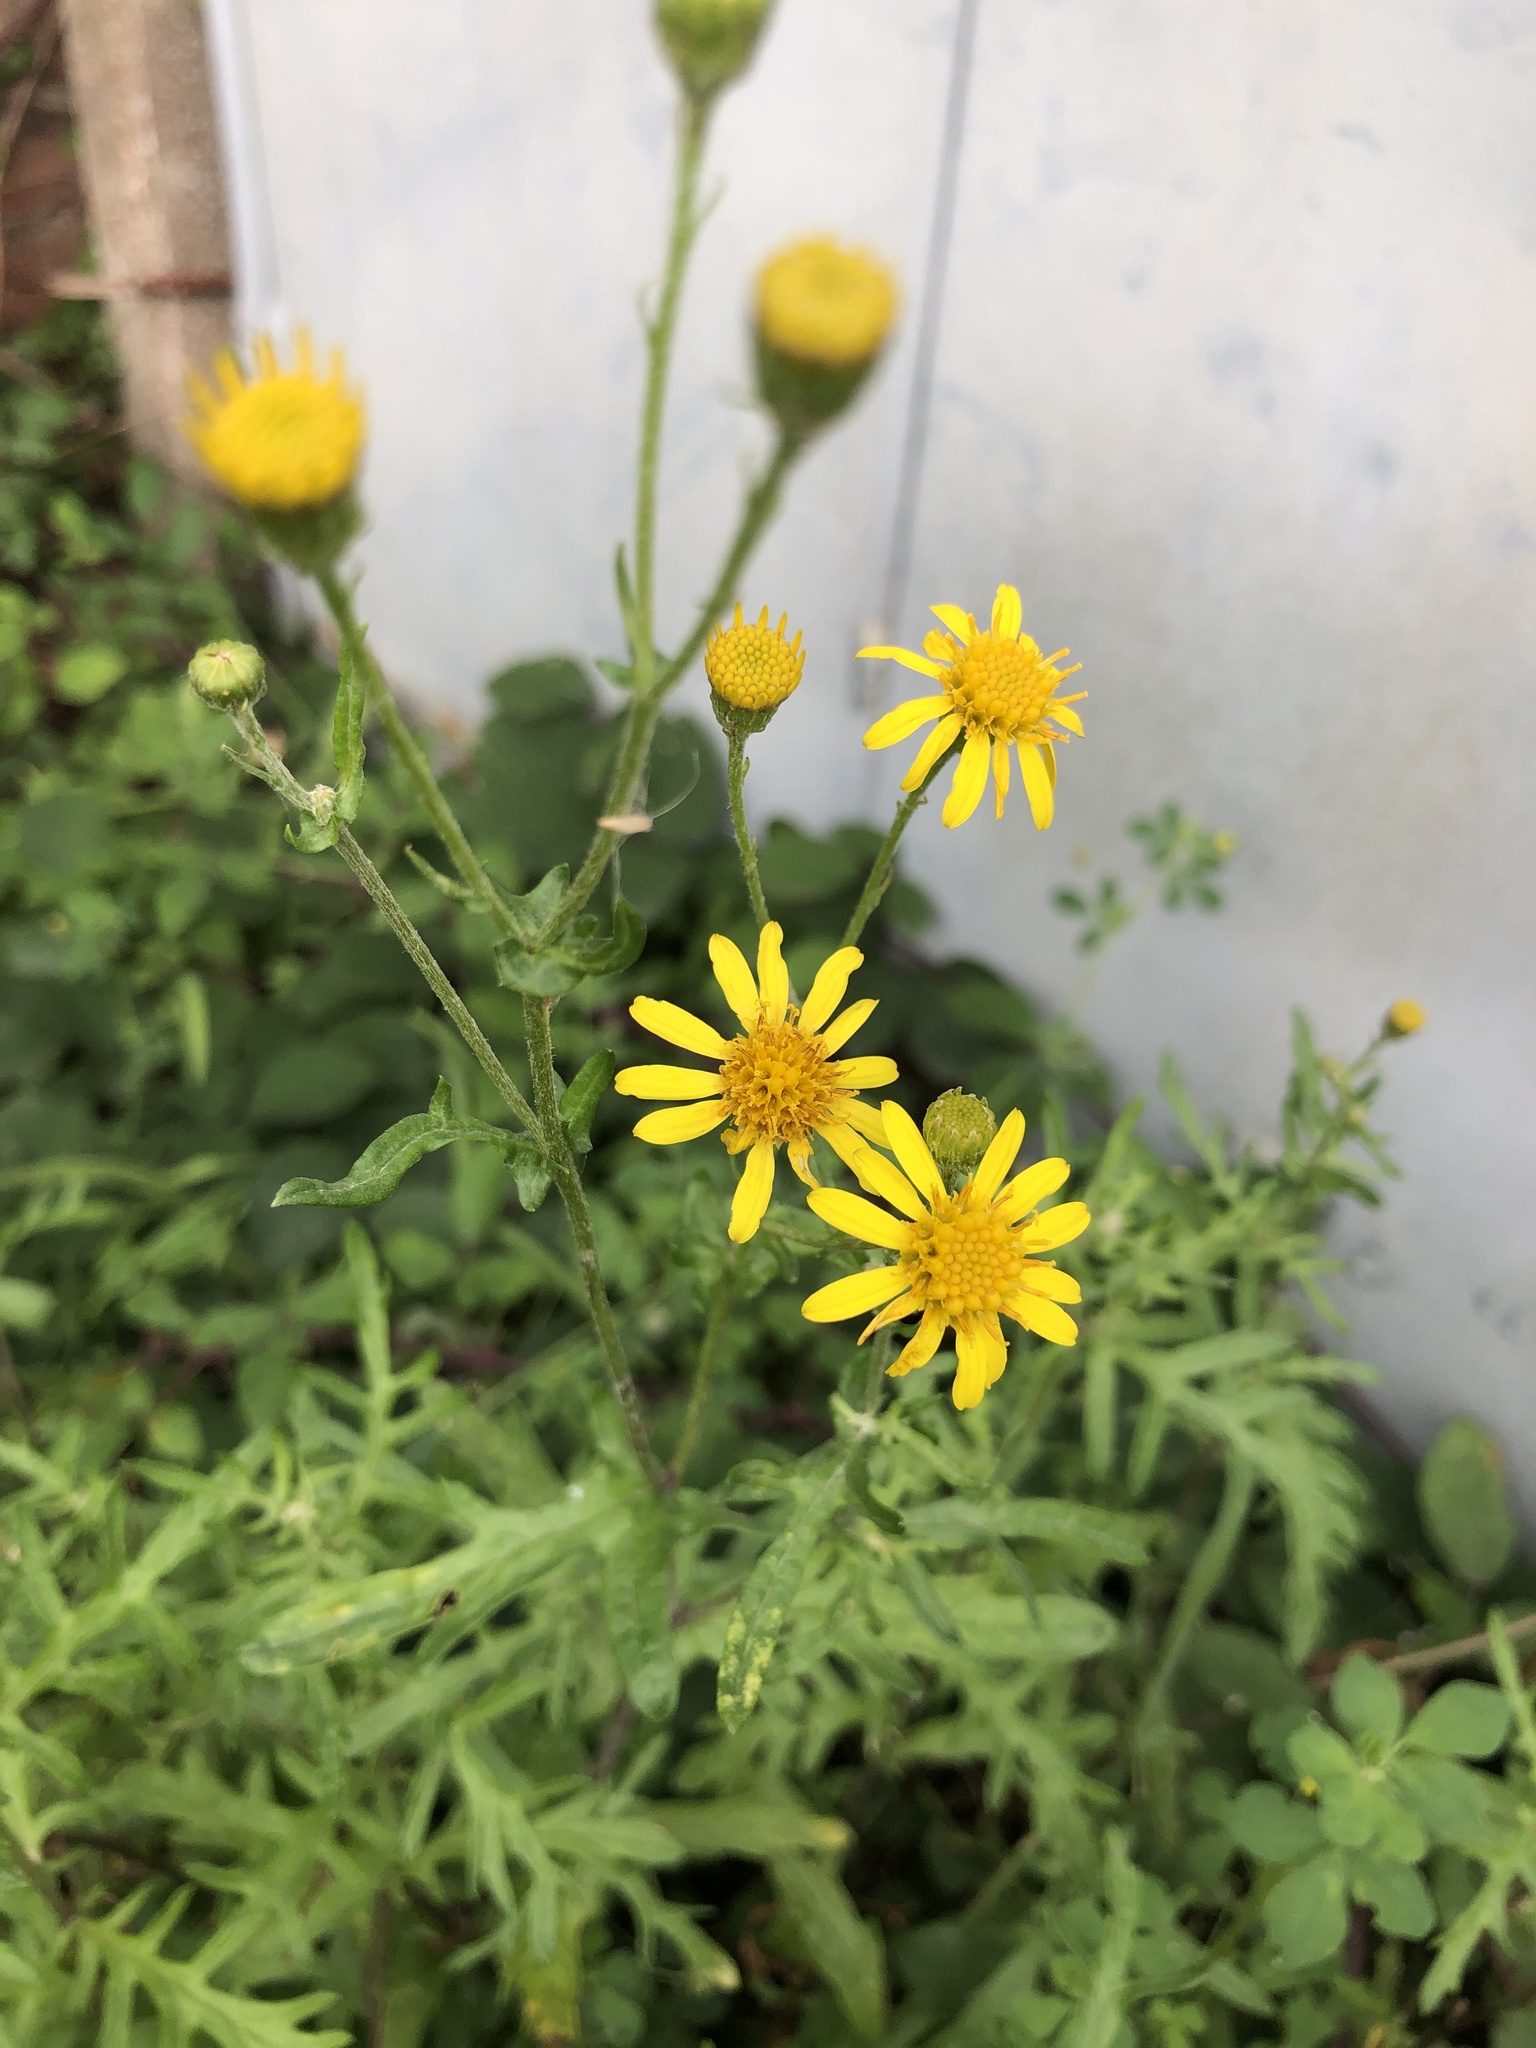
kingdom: Plantae
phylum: Tracheophyta
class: Magnoliopsida
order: Asterales
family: Asteraceae
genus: Senecio
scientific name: Senecio squalidus
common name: Oxford ragwort
